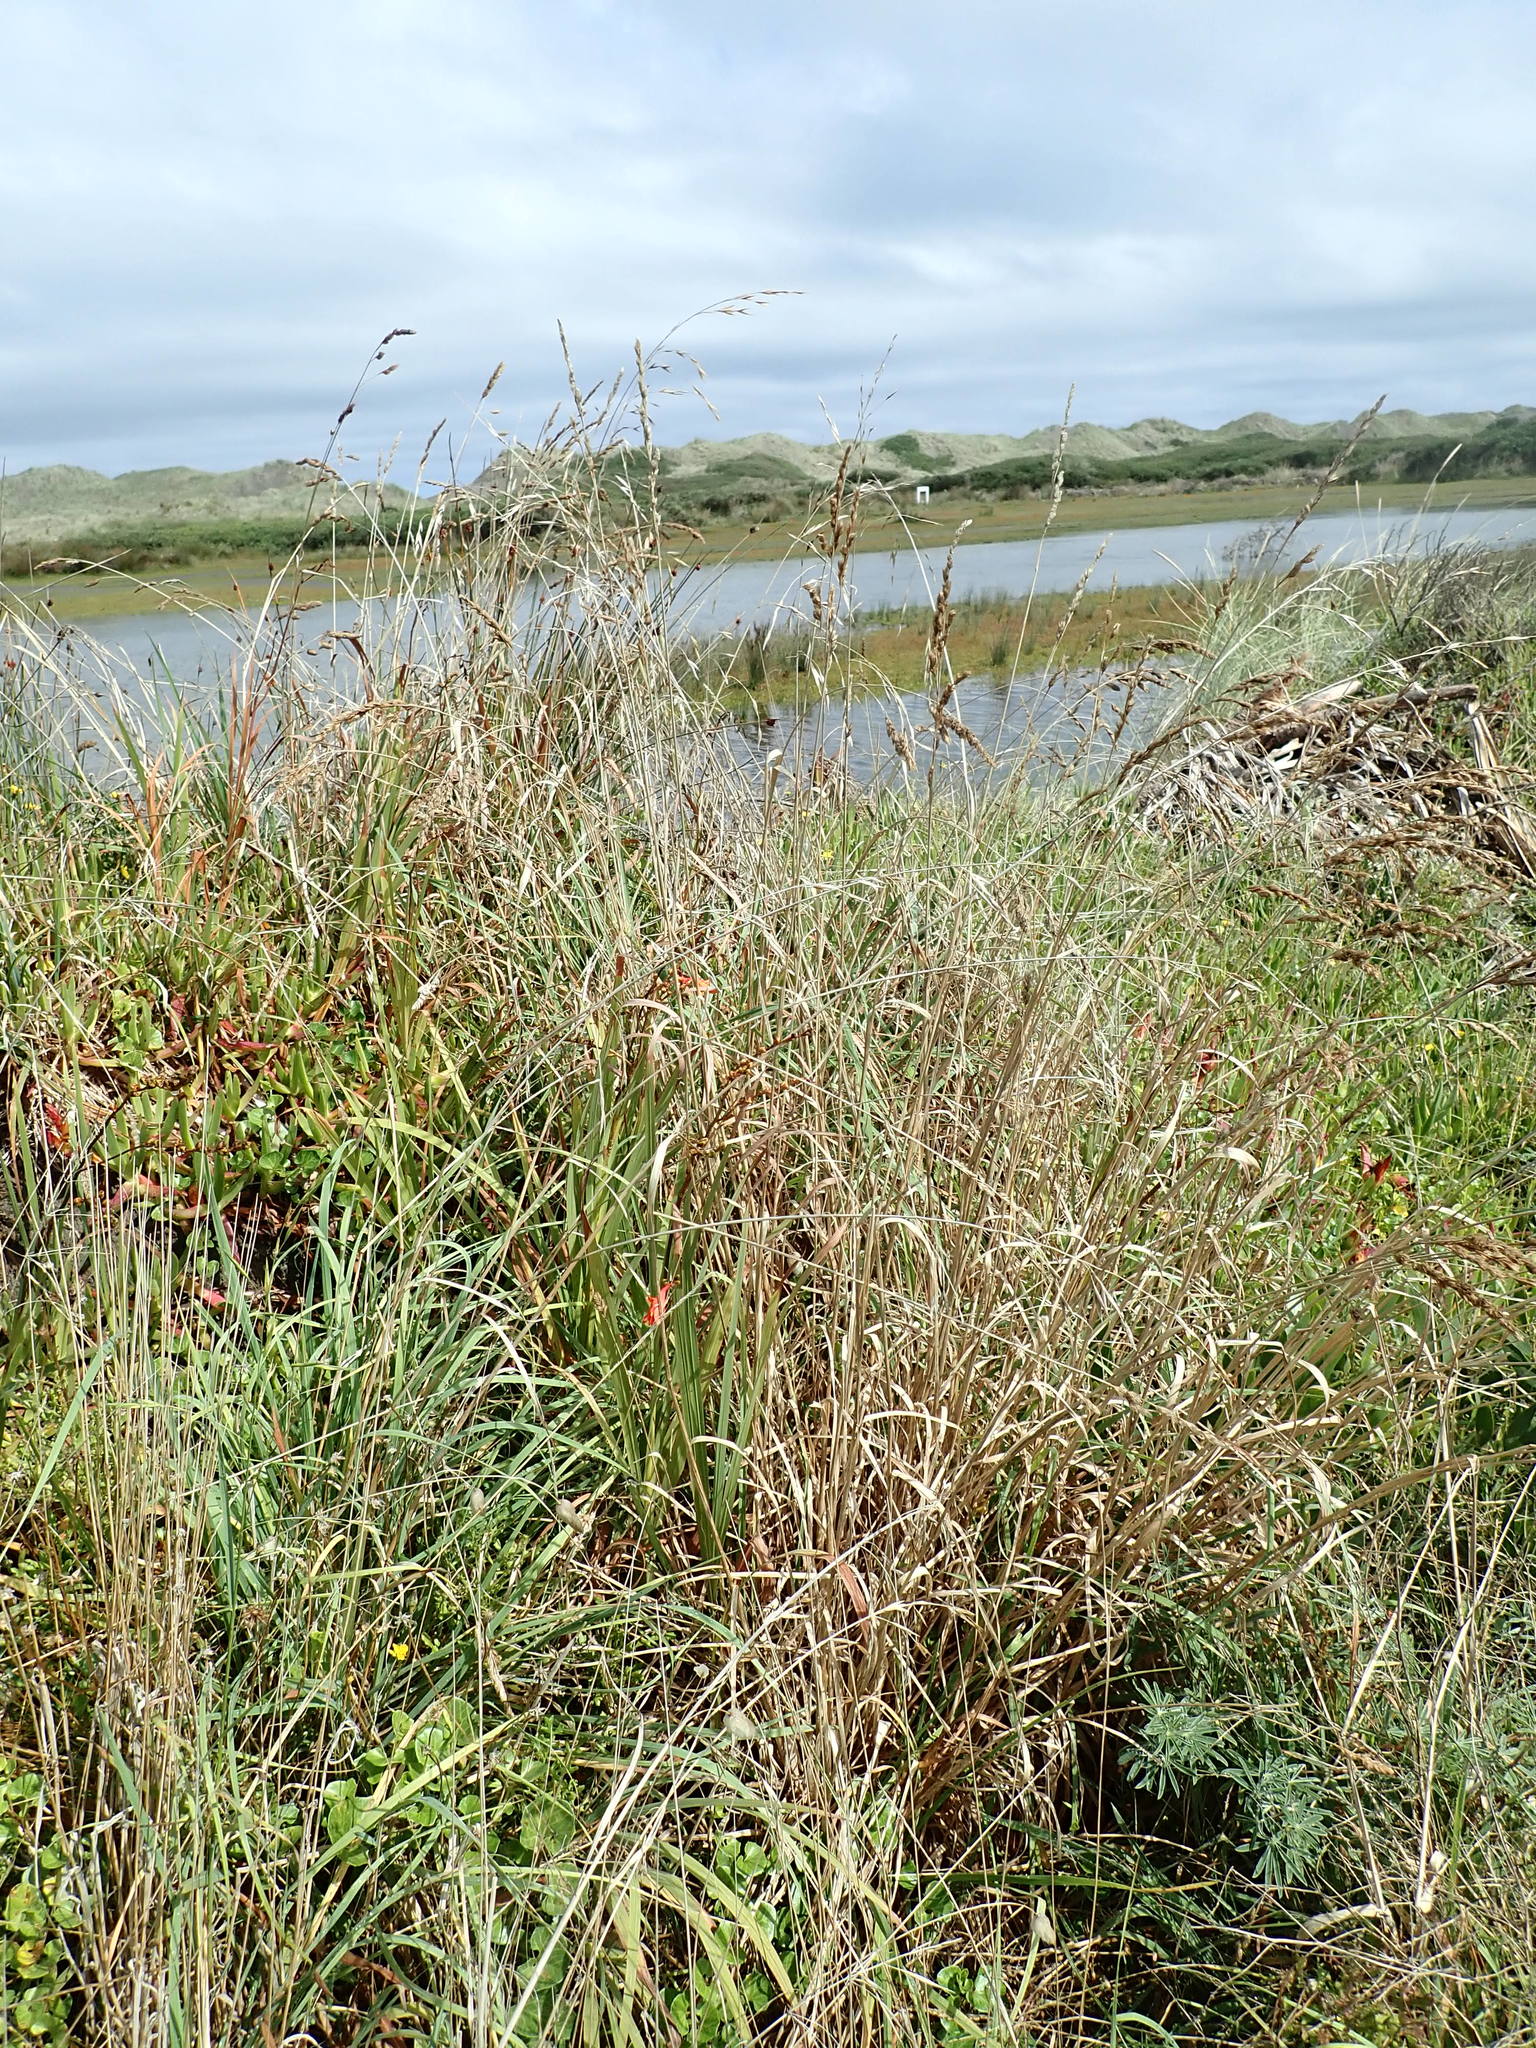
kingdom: Plantae
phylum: Tracheophyta
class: Liliopsida
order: Asparagales
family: Iridaceae
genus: Crocosmia
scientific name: Crocosmia crocosmiiflora
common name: Montbretia
